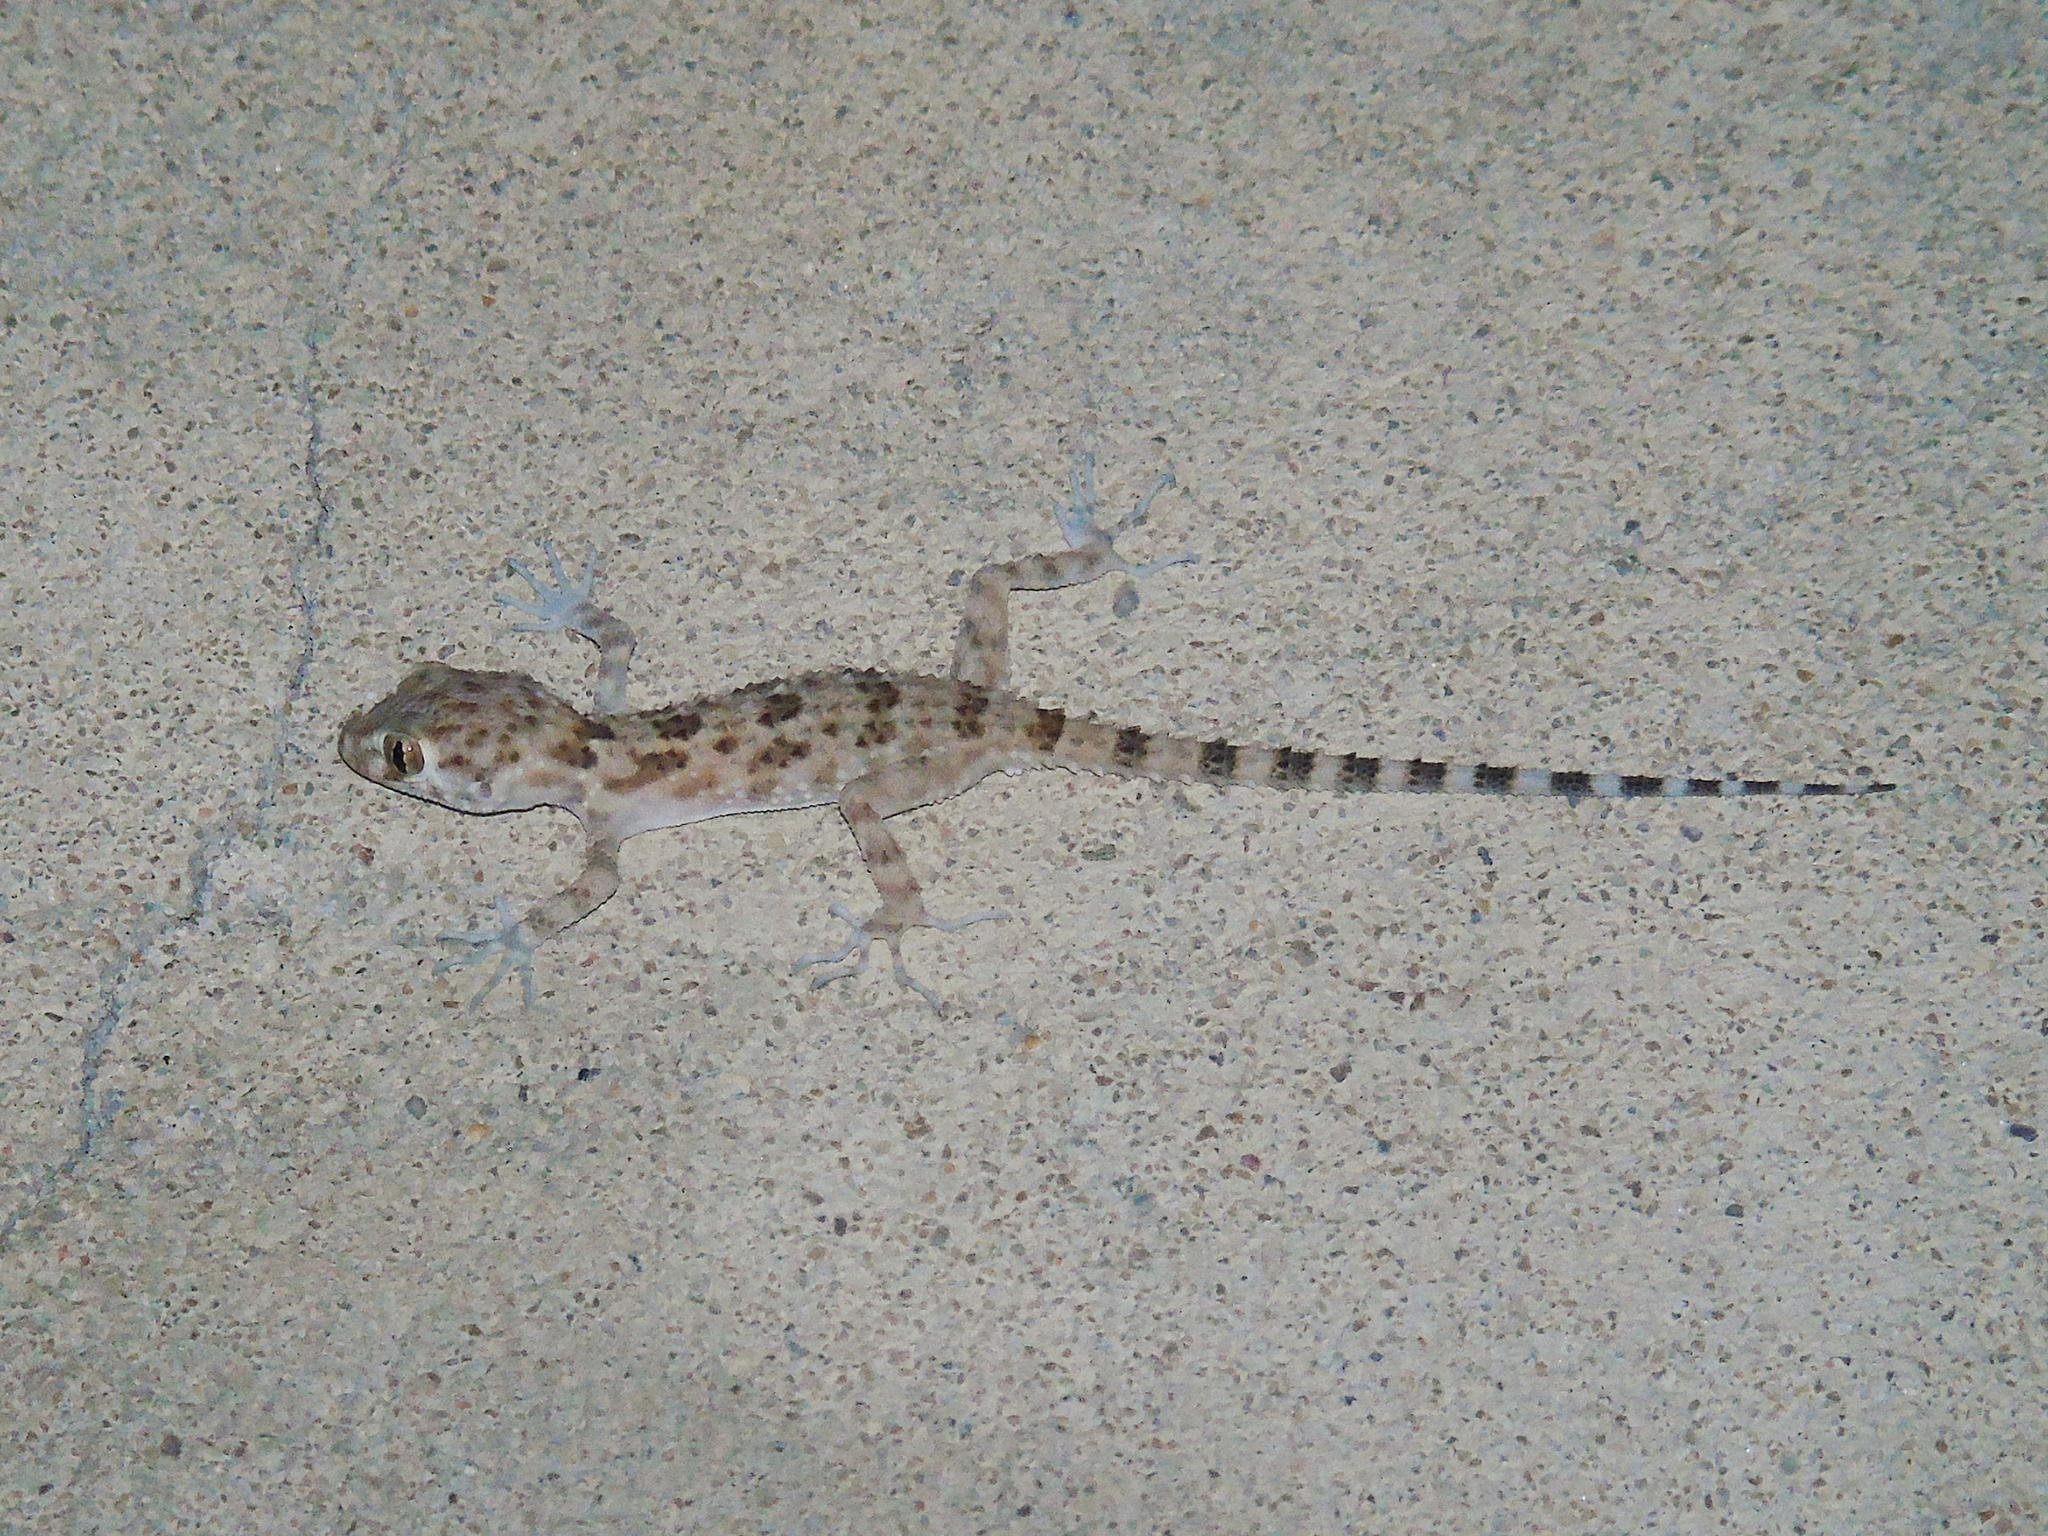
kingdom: Animalia
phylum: Chordata
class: Squamata
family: Gekkonidae
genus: Tenuidactylus
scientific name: Tenuidactylus caspius
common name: Caspian bent-toed gecko
